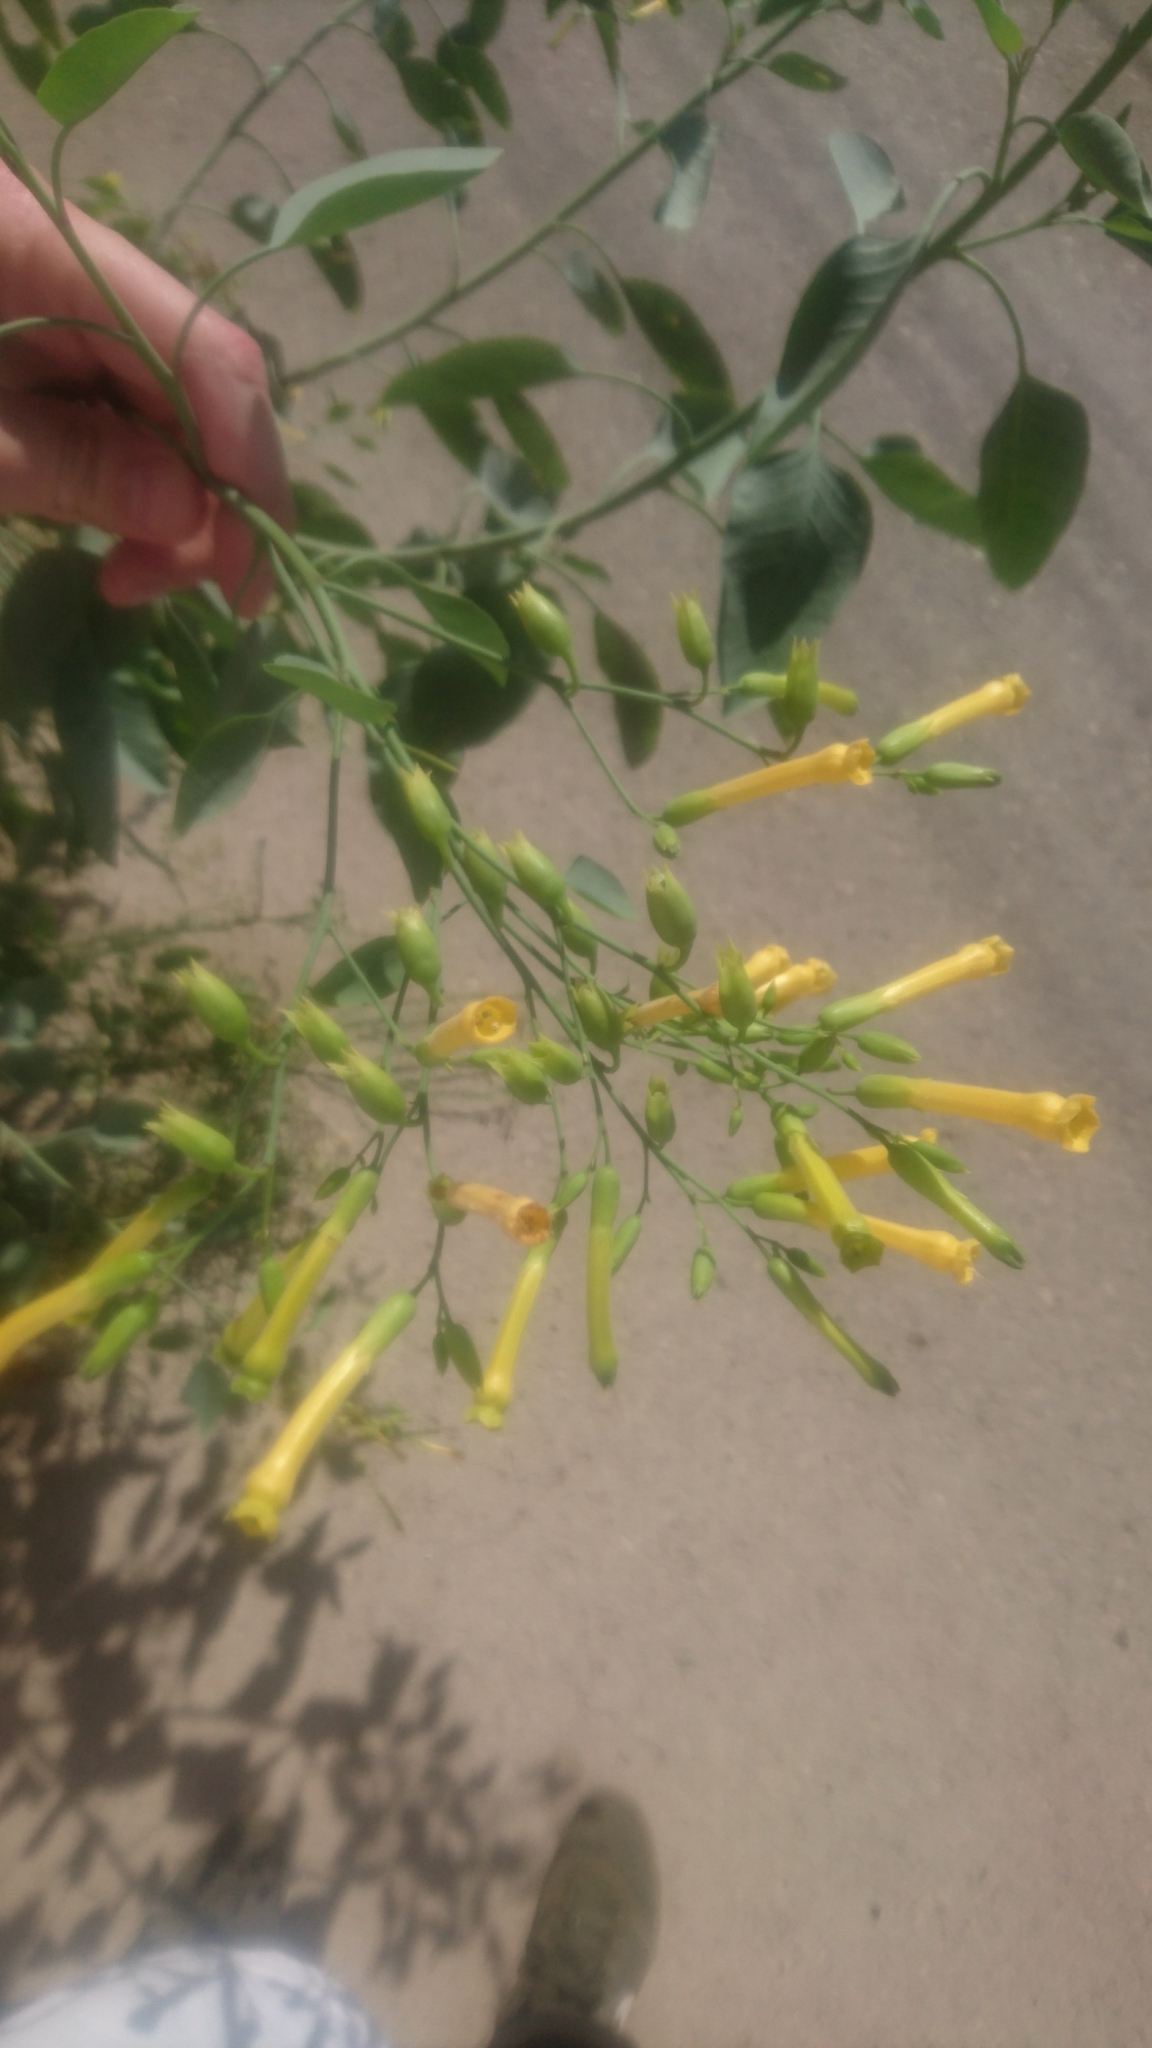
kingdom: Plantae
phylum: Tracheophyta
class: Magnoliopsida
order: Solanales
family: Solanaceae
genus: Nicotiana
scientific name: Nicotiana glauca
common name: Tree tobacco
